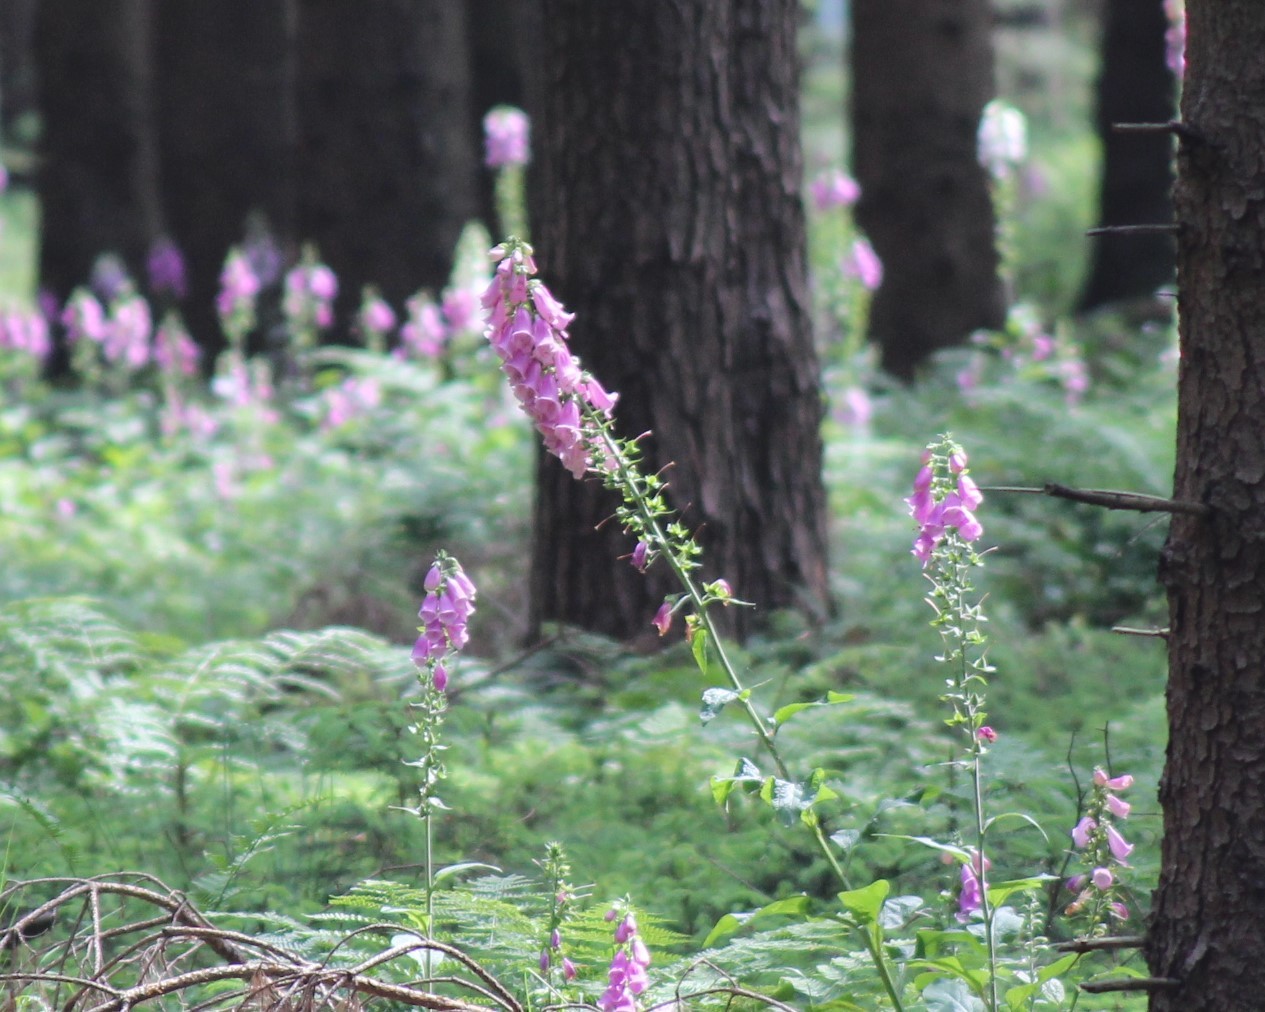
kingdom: Plantae
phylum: Tracheophyta
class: Magnoliopsida
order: Lamiales
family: Plantaginaceae
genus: Digitalis
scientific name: Digitalis purpurea
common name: Foxglove
